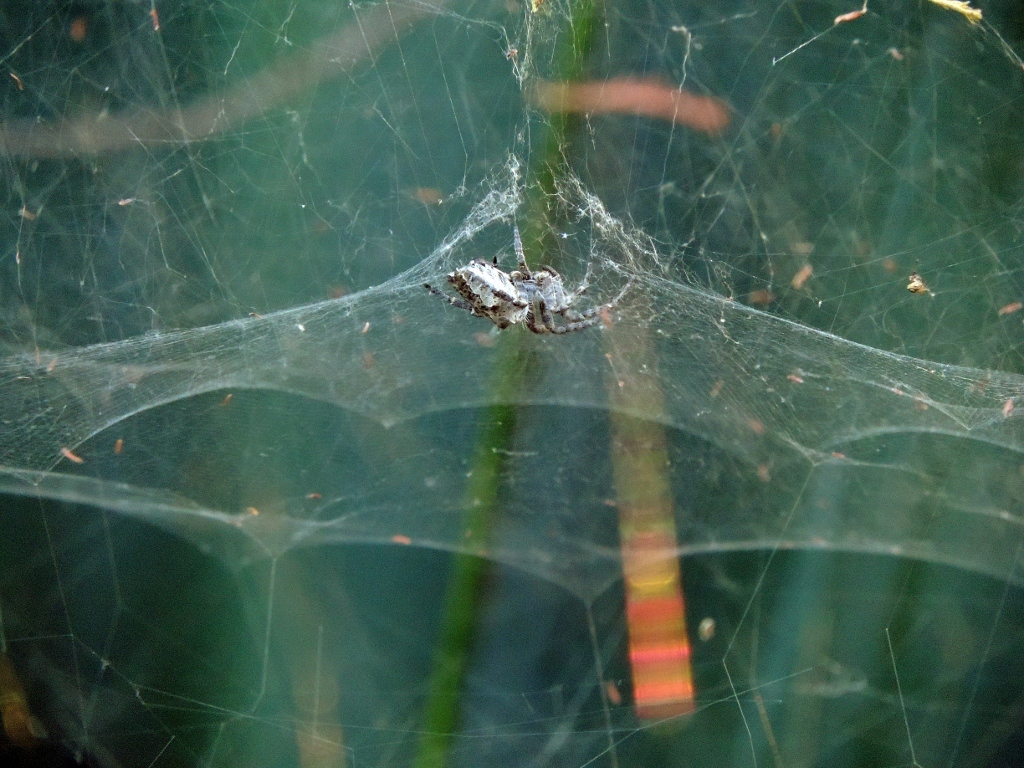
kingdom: Animalia
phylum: Arthropoda
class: Arachnida
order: Araneae
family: Araneidae
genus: Cyrtophora
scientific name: Cyrtophora citricola
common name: Orb weavers
